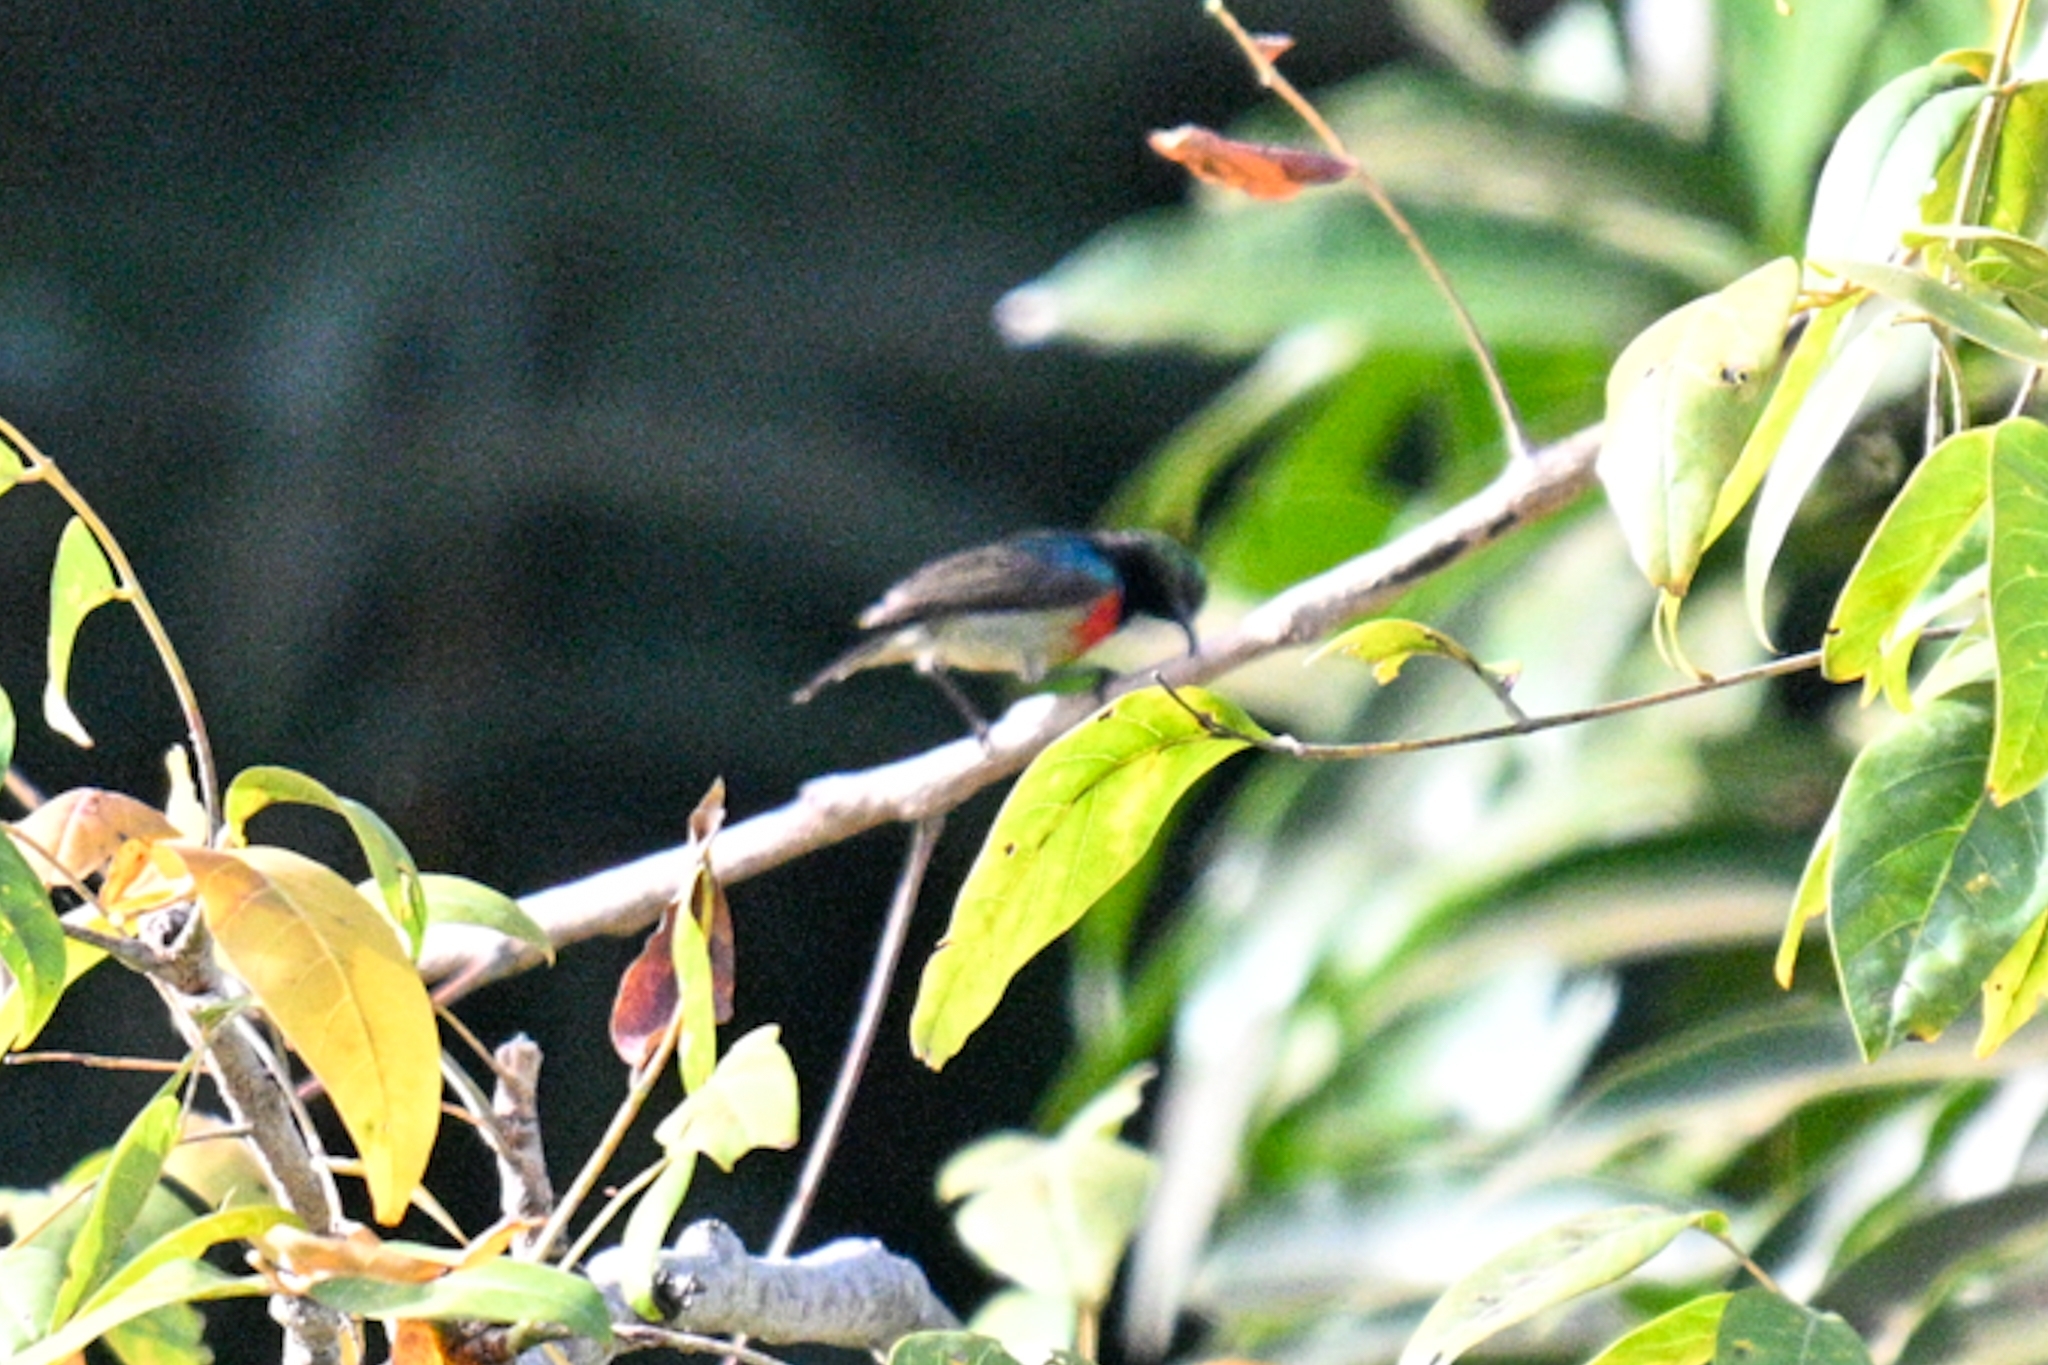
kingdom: Animalia
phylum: Chordata
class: Aves
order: Passeriformes
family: Nectariniidae
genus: Cinnyris
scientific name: Cinnyris chloropygius
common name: Olive-bellied sunbird
